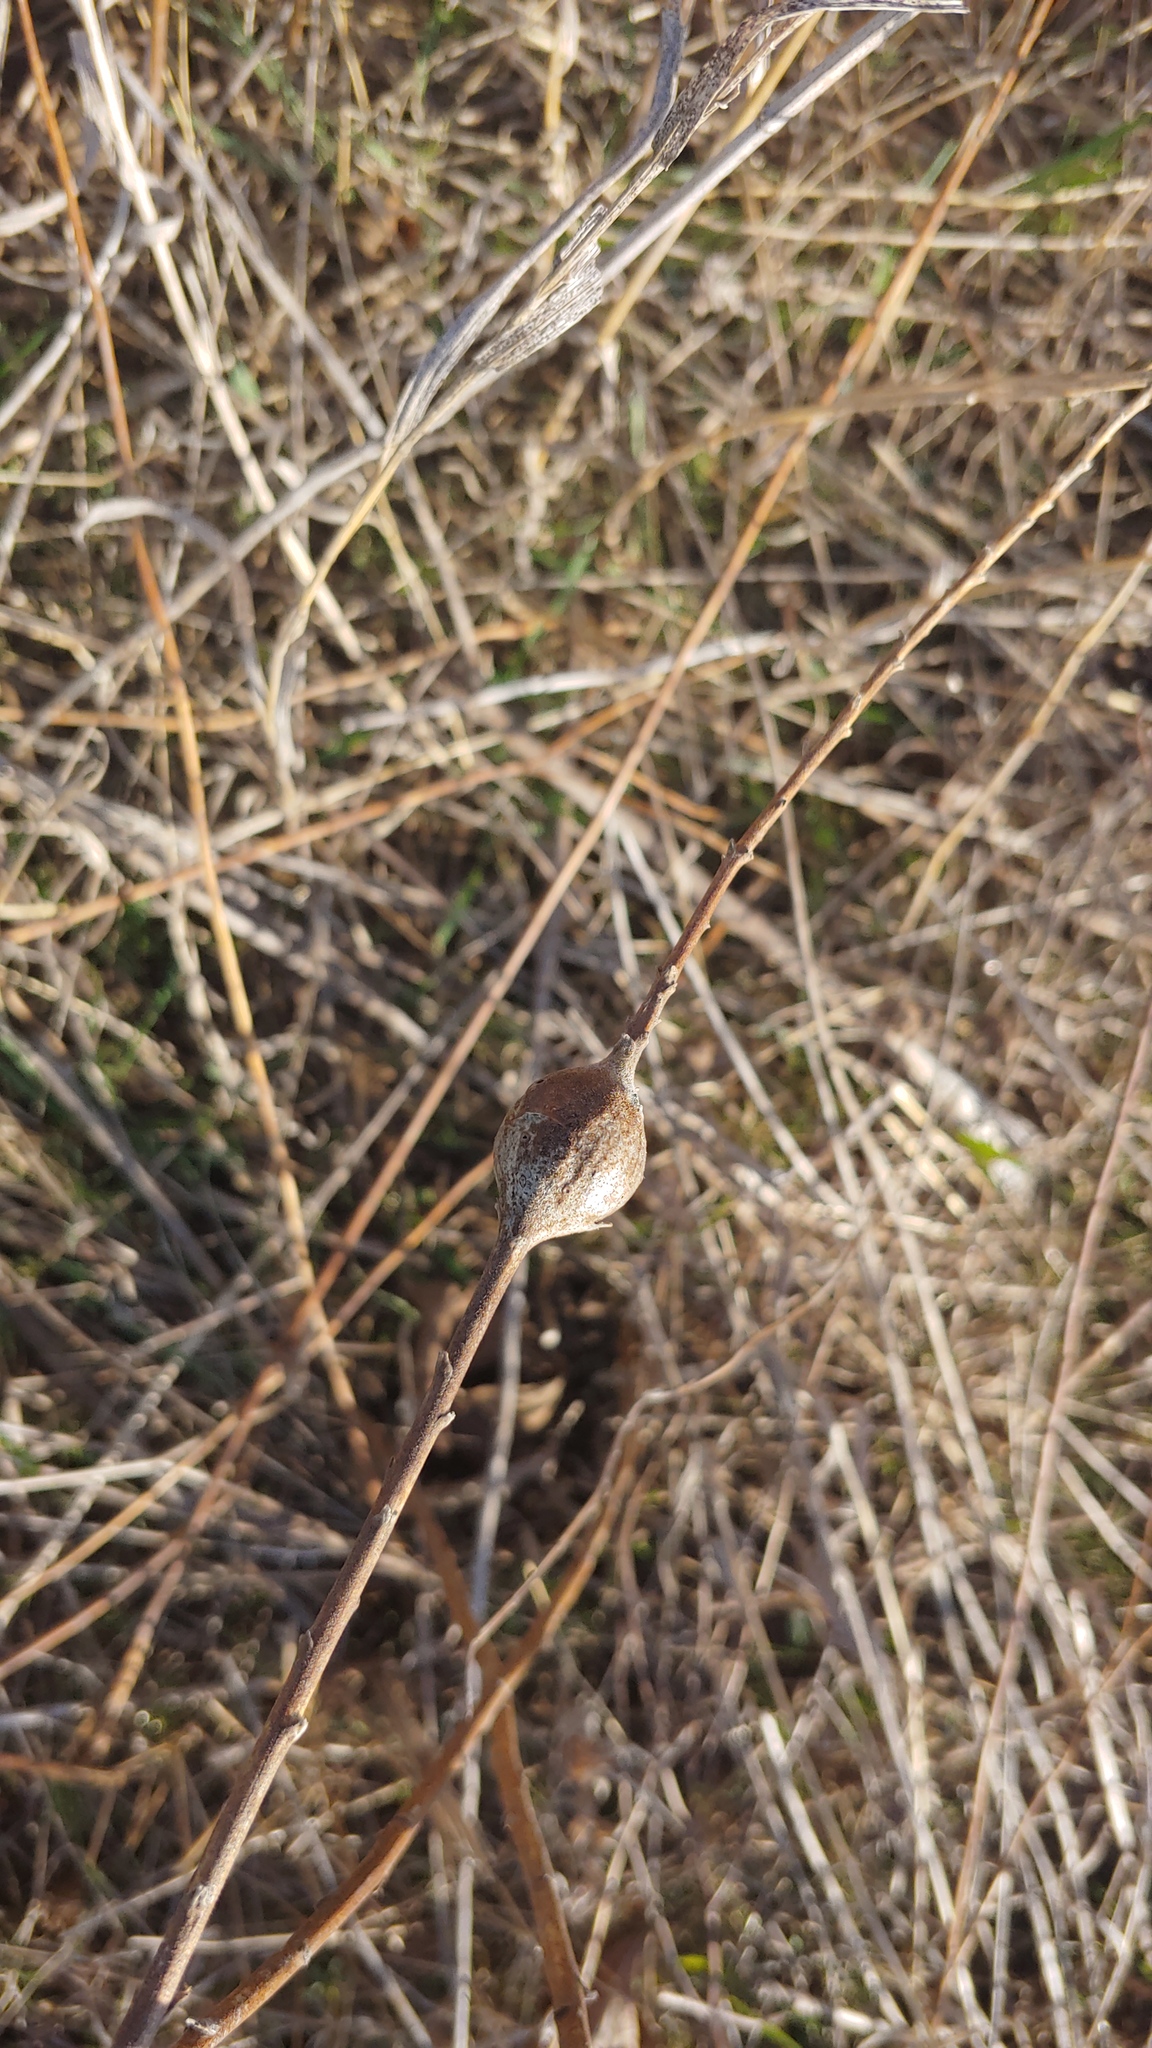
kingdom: Animalia
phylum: Arthropoda
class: Insecta
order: Diptera
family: Tephritidae
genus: Eurosta
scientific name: Eurosta solidaginis
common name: Goldenrod gall fly
